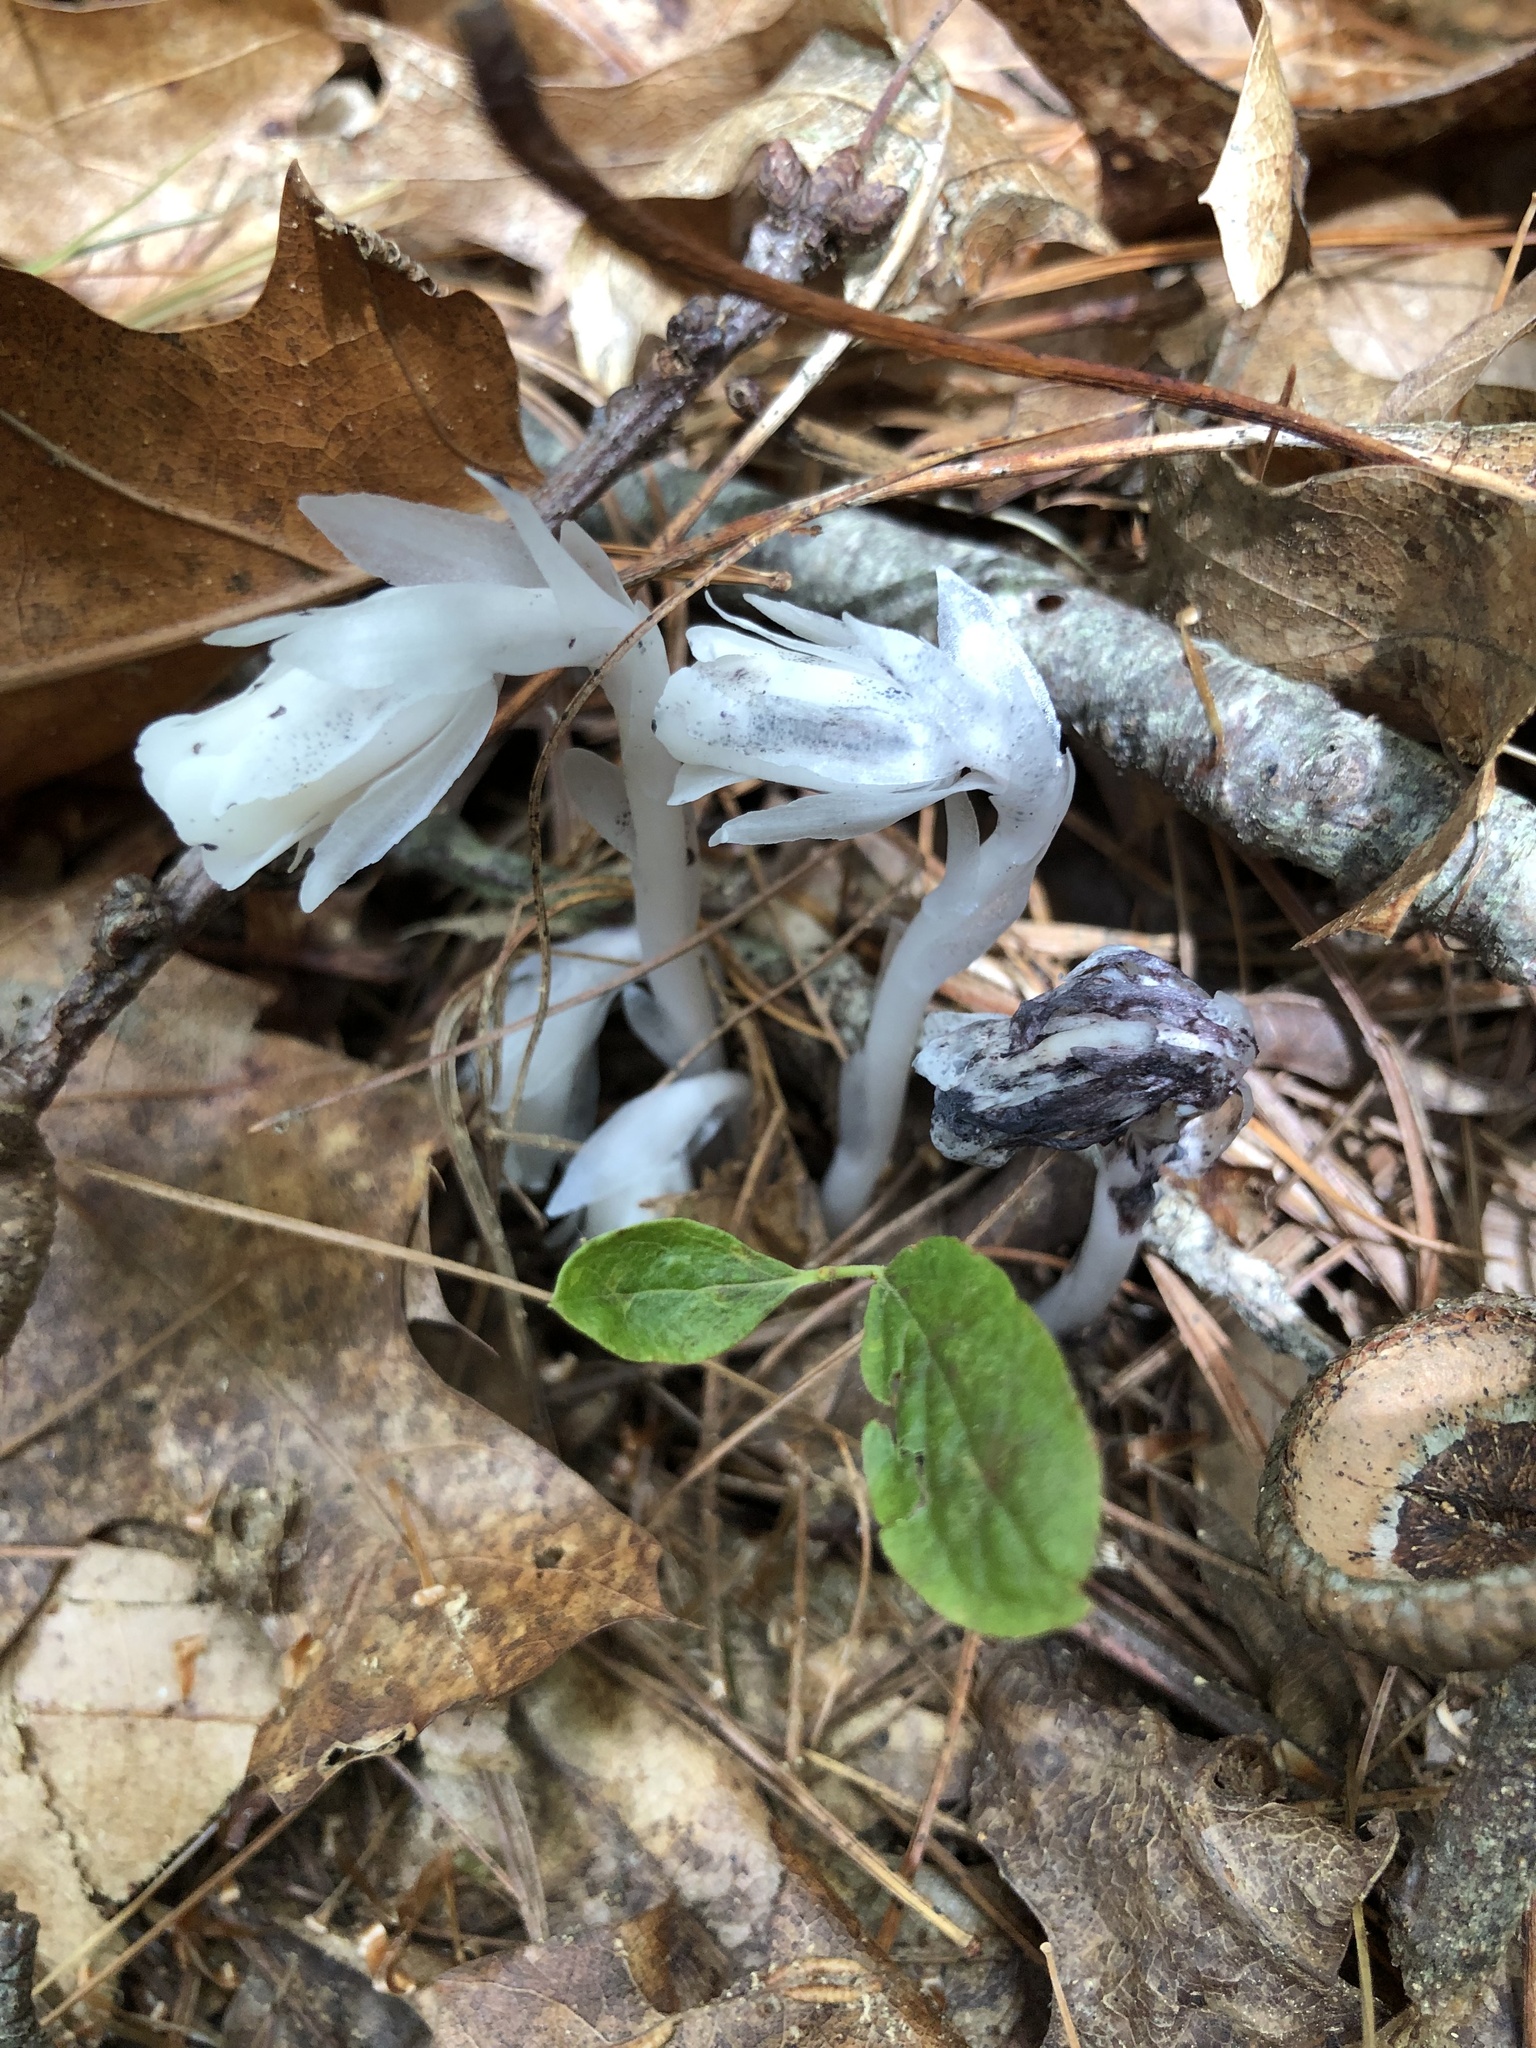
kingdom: Plantae
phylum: Tracheophyta
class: Magnoliopsida
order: Ericales
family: Ericaceae
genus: Monotropa
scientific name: Monotropa uniflora
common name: Convulsion root
